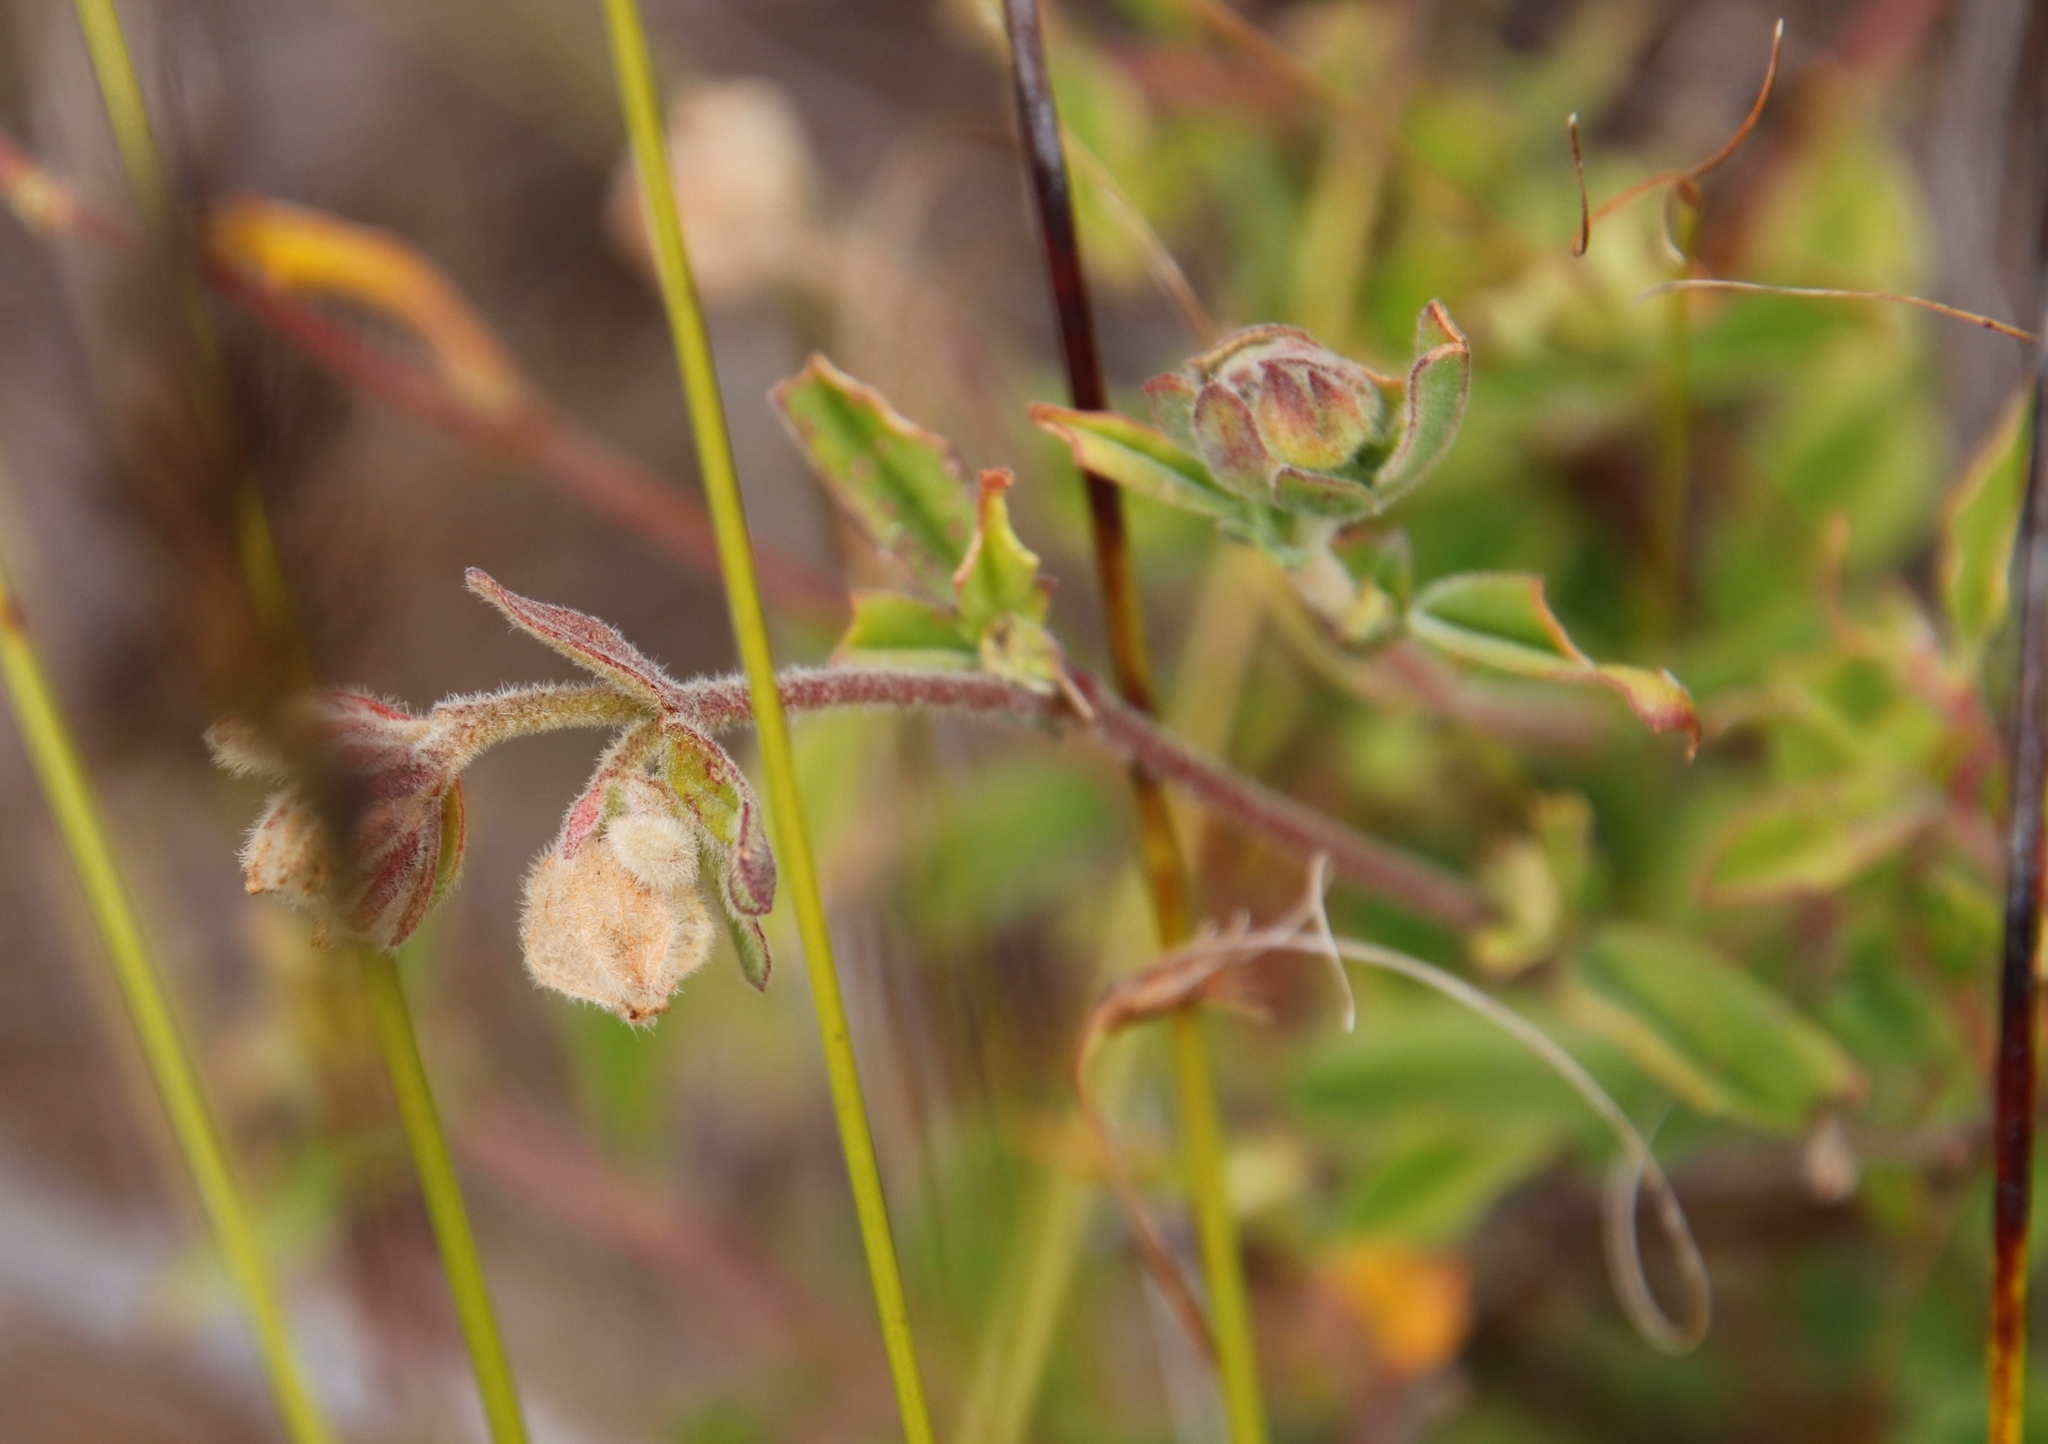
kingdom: Plantae
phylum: Tracheophyta
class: Magnoliopsida
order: Malvales
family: Malvaceae
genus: Hermannia
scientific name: Hermannia hyssopifolia
